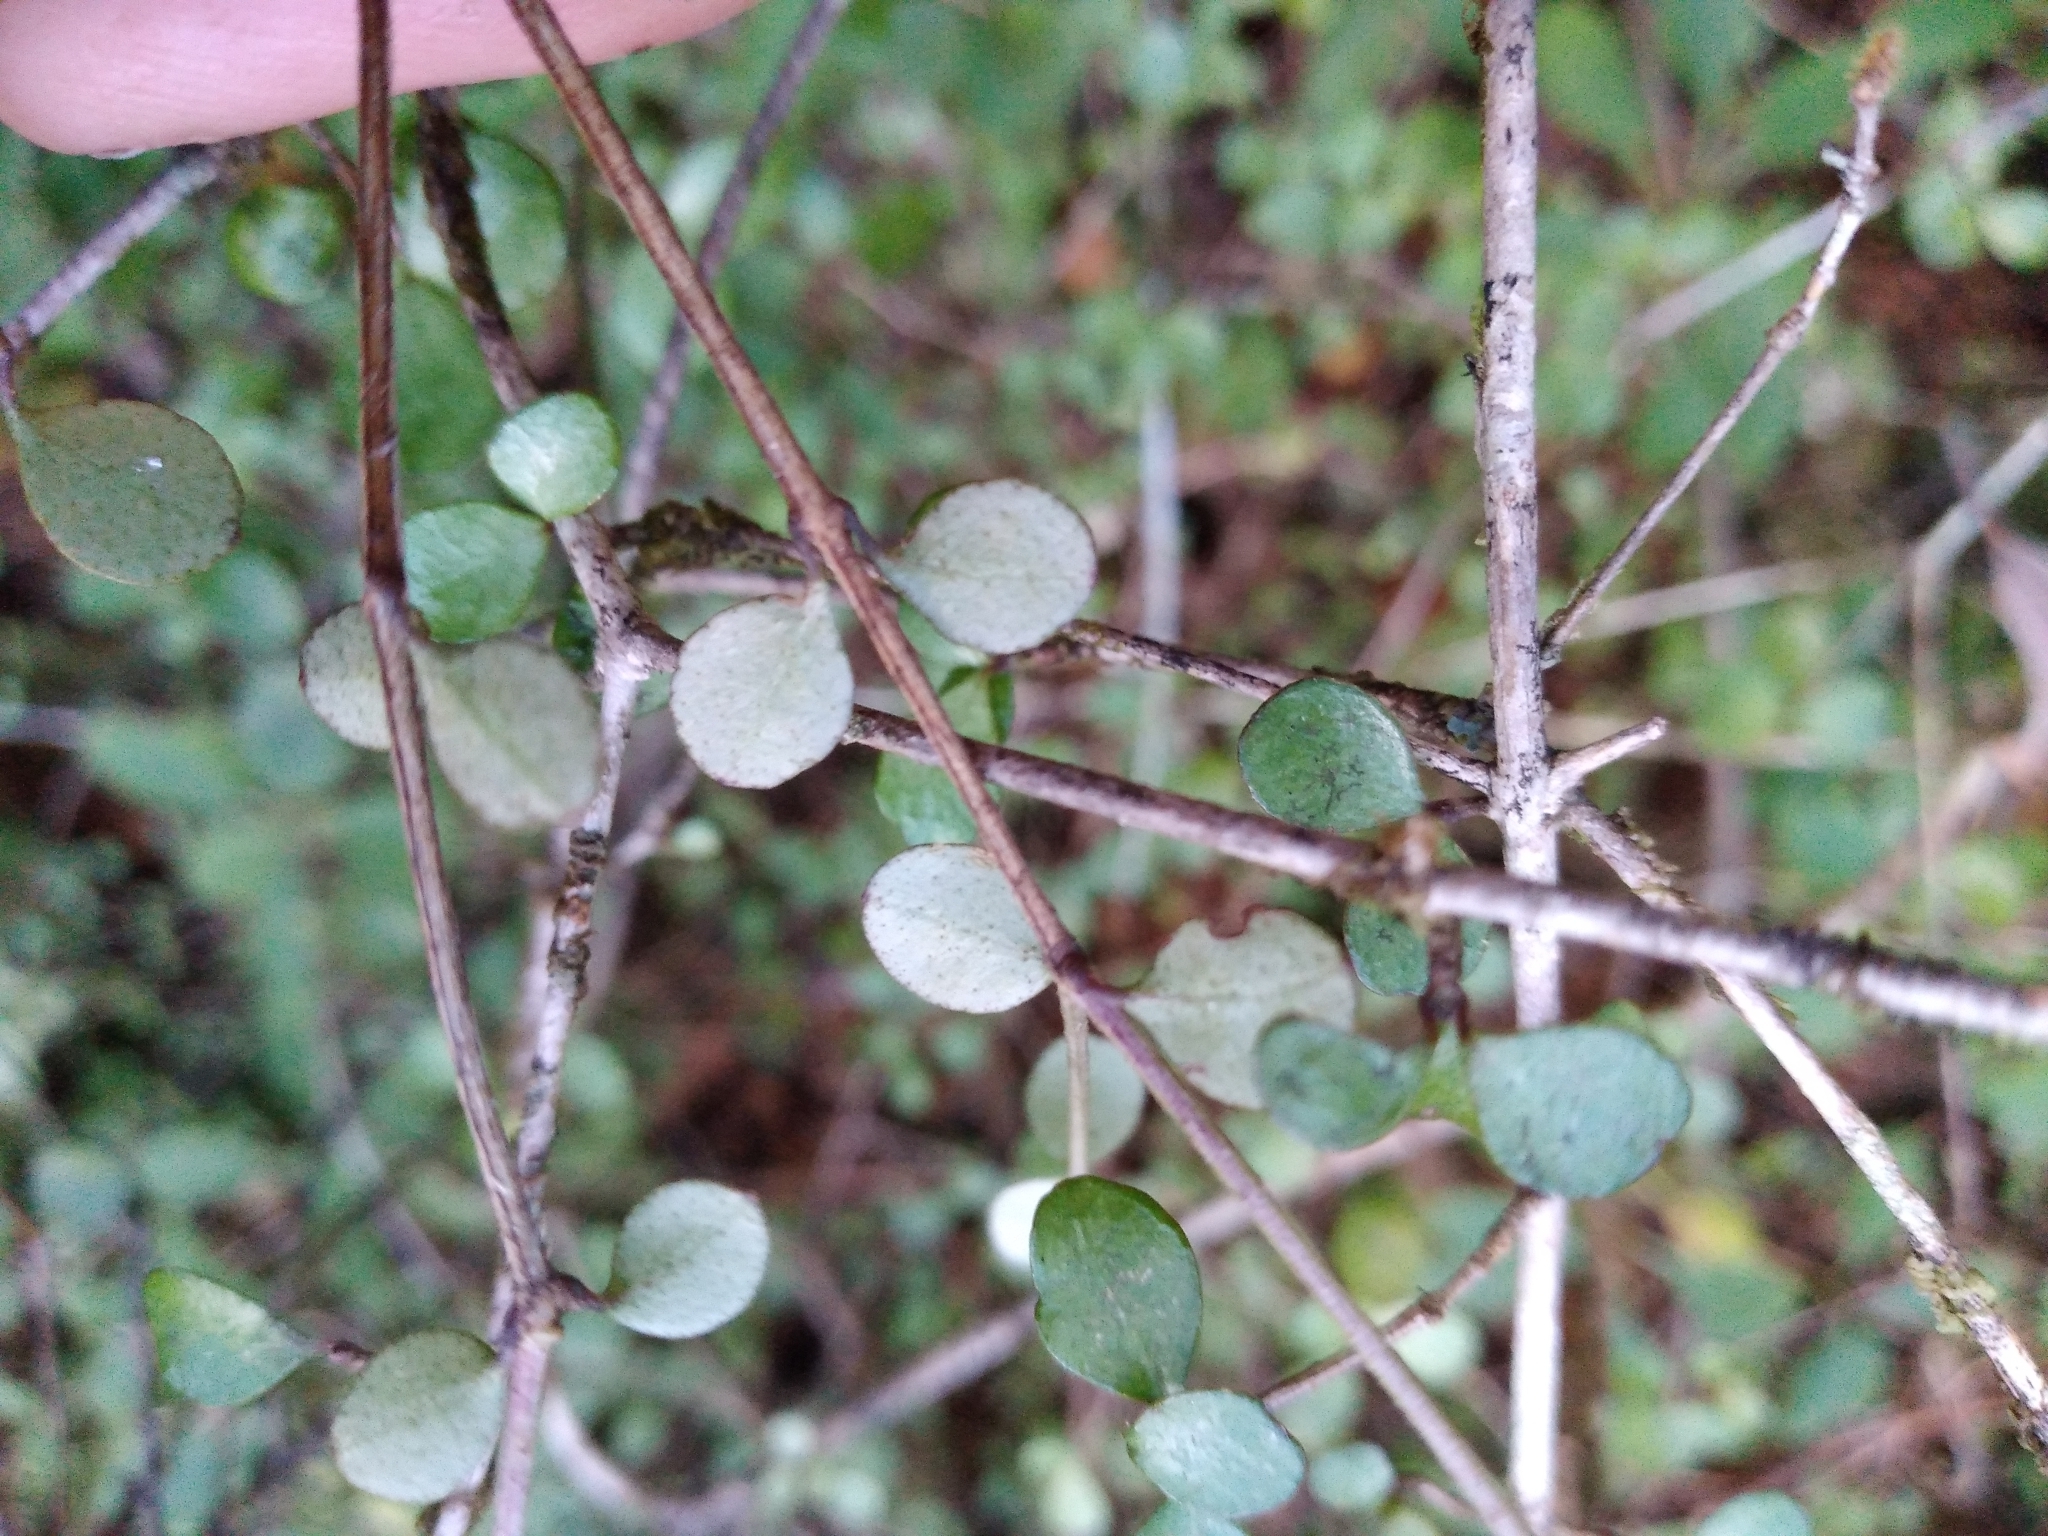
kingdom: Plantae
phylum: Tracheophyta
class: Magnoliopsida
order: Myrtales
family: Myrtaceae
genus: Neomyrtus
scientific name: Neomyrtus pedunculata
